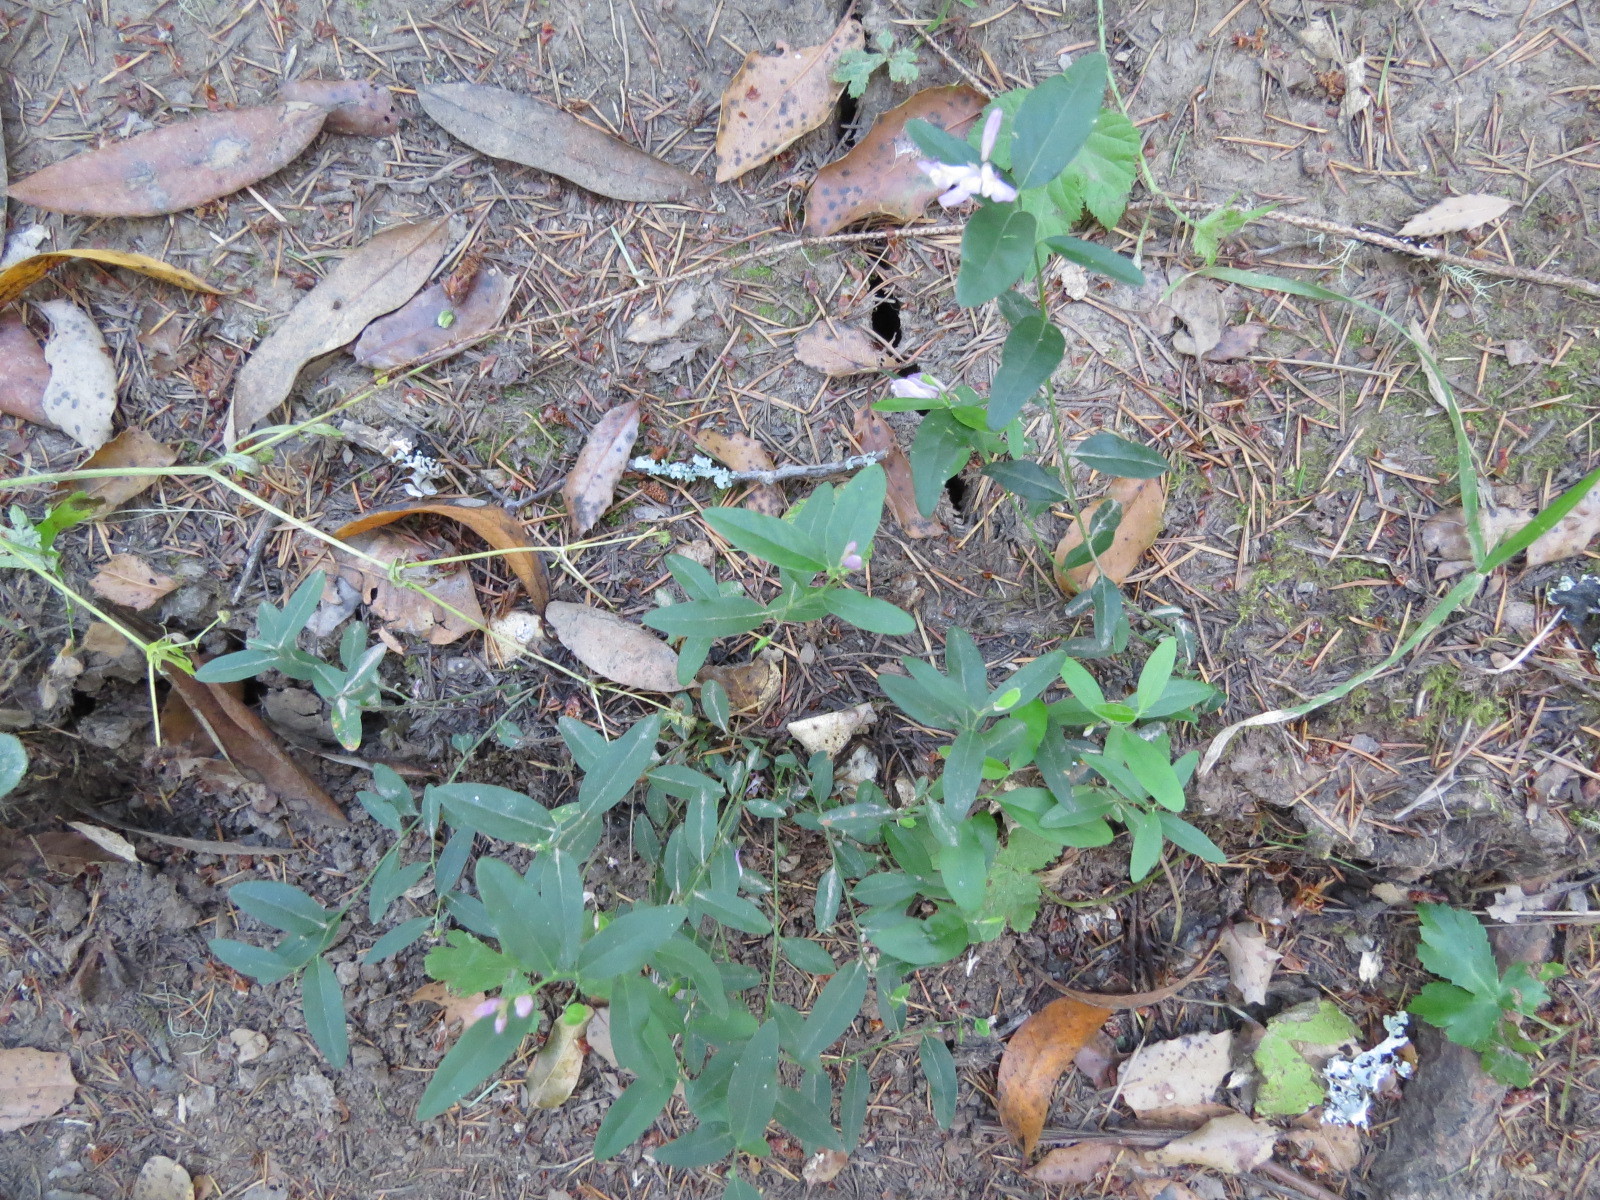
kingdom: Plantae
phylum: Tracheophyta
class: Magnoliopsida
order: Fabales
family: Polygalaceae
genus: Rhinotropis
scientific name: Rhinotropis californica
